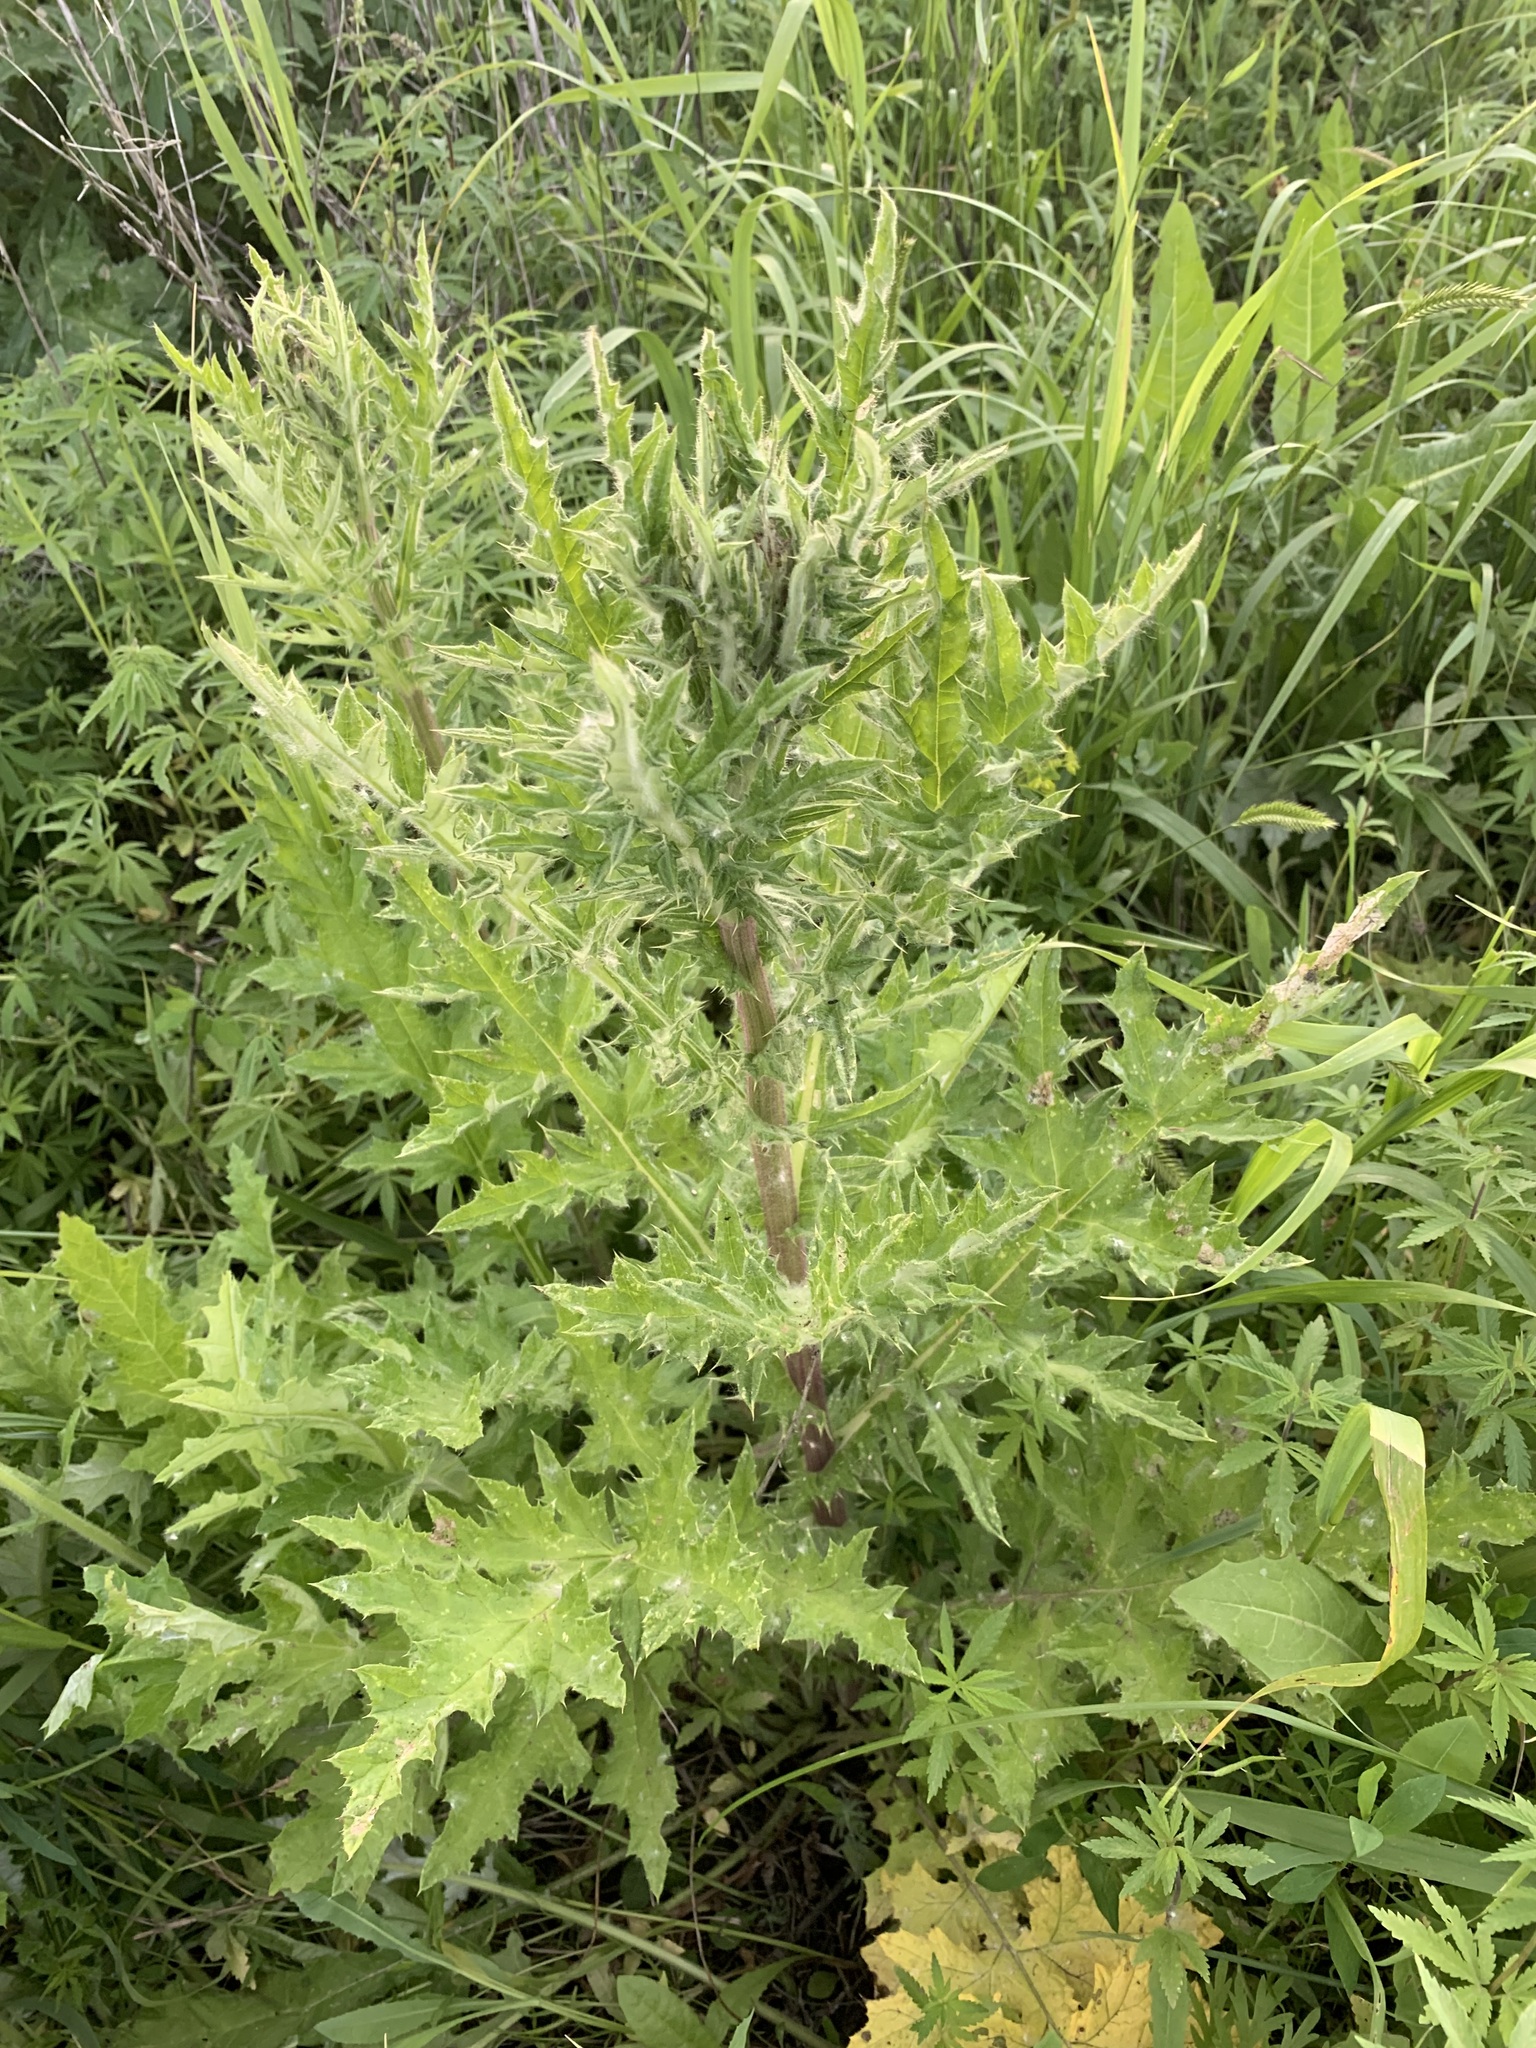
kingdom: Plantae
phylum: Tracheophyta
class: Magnoliopsida
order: Asterales
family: Asteraceae
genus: Echinops
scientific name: Echinops sphaerocephalus
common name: Glandular globe-thistle
